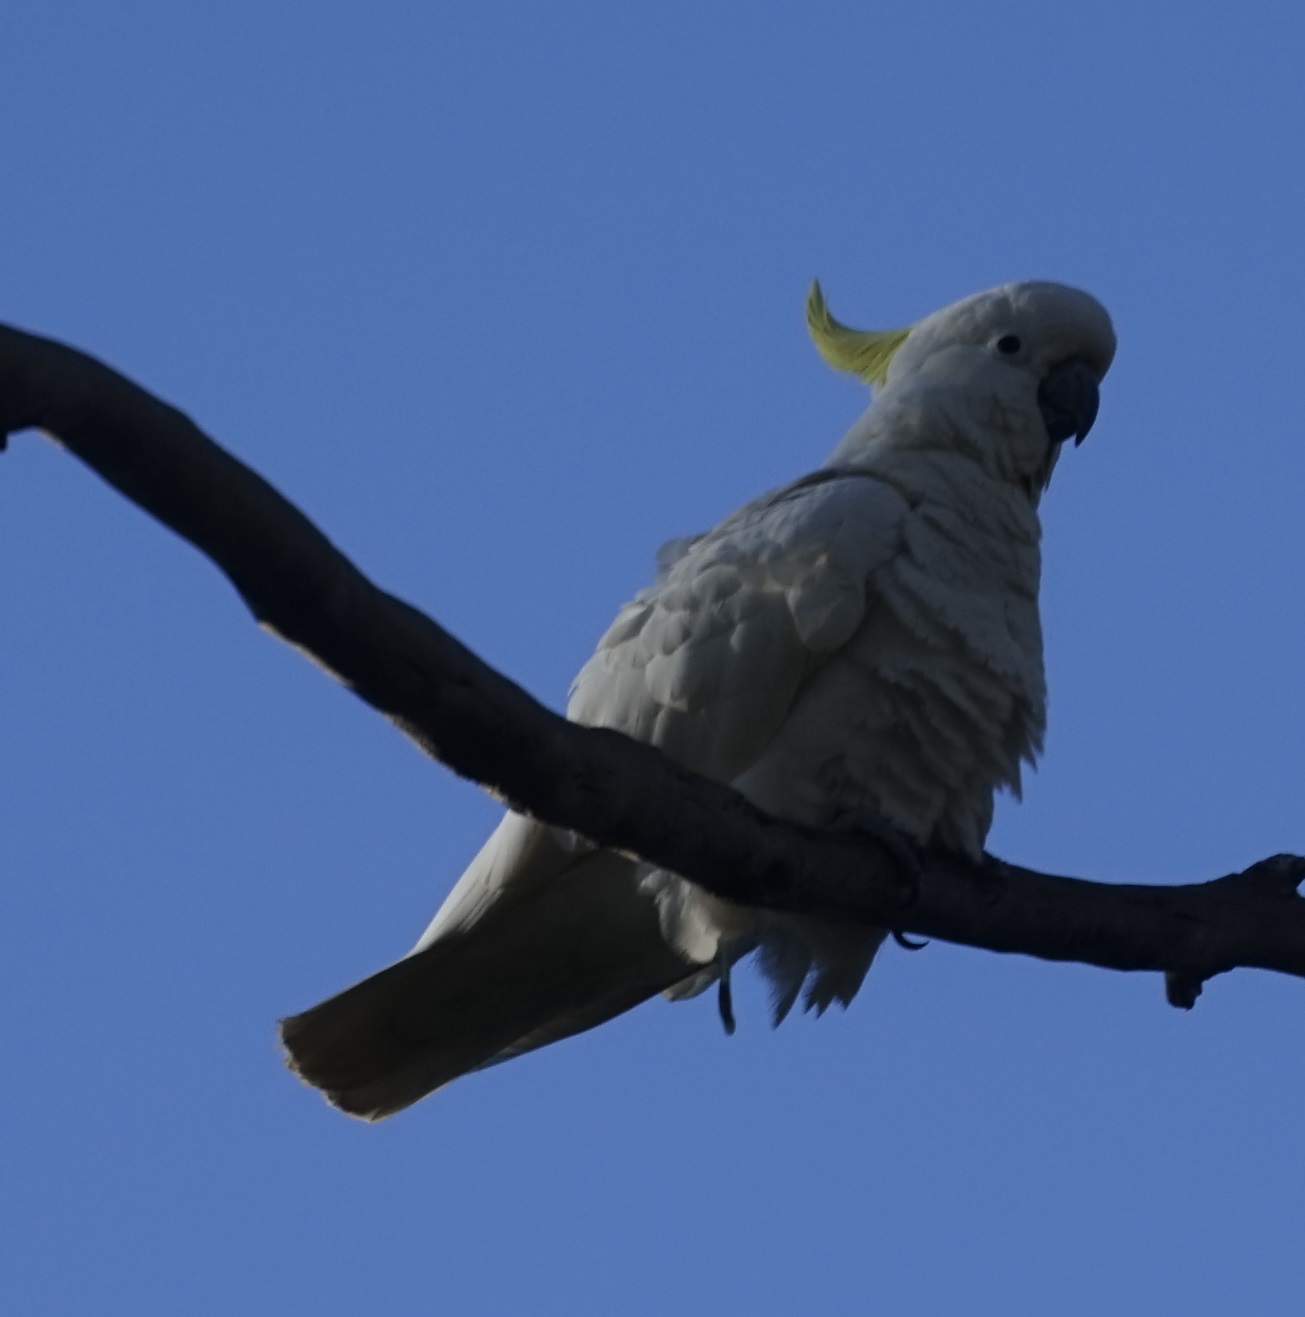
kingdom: Animalia
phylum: Chordata
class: Aves
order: Psittaciformes
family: Psittacidae
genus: Cacatua
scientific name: Cacatua galerita
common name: Sulphur-crested cockatoo
